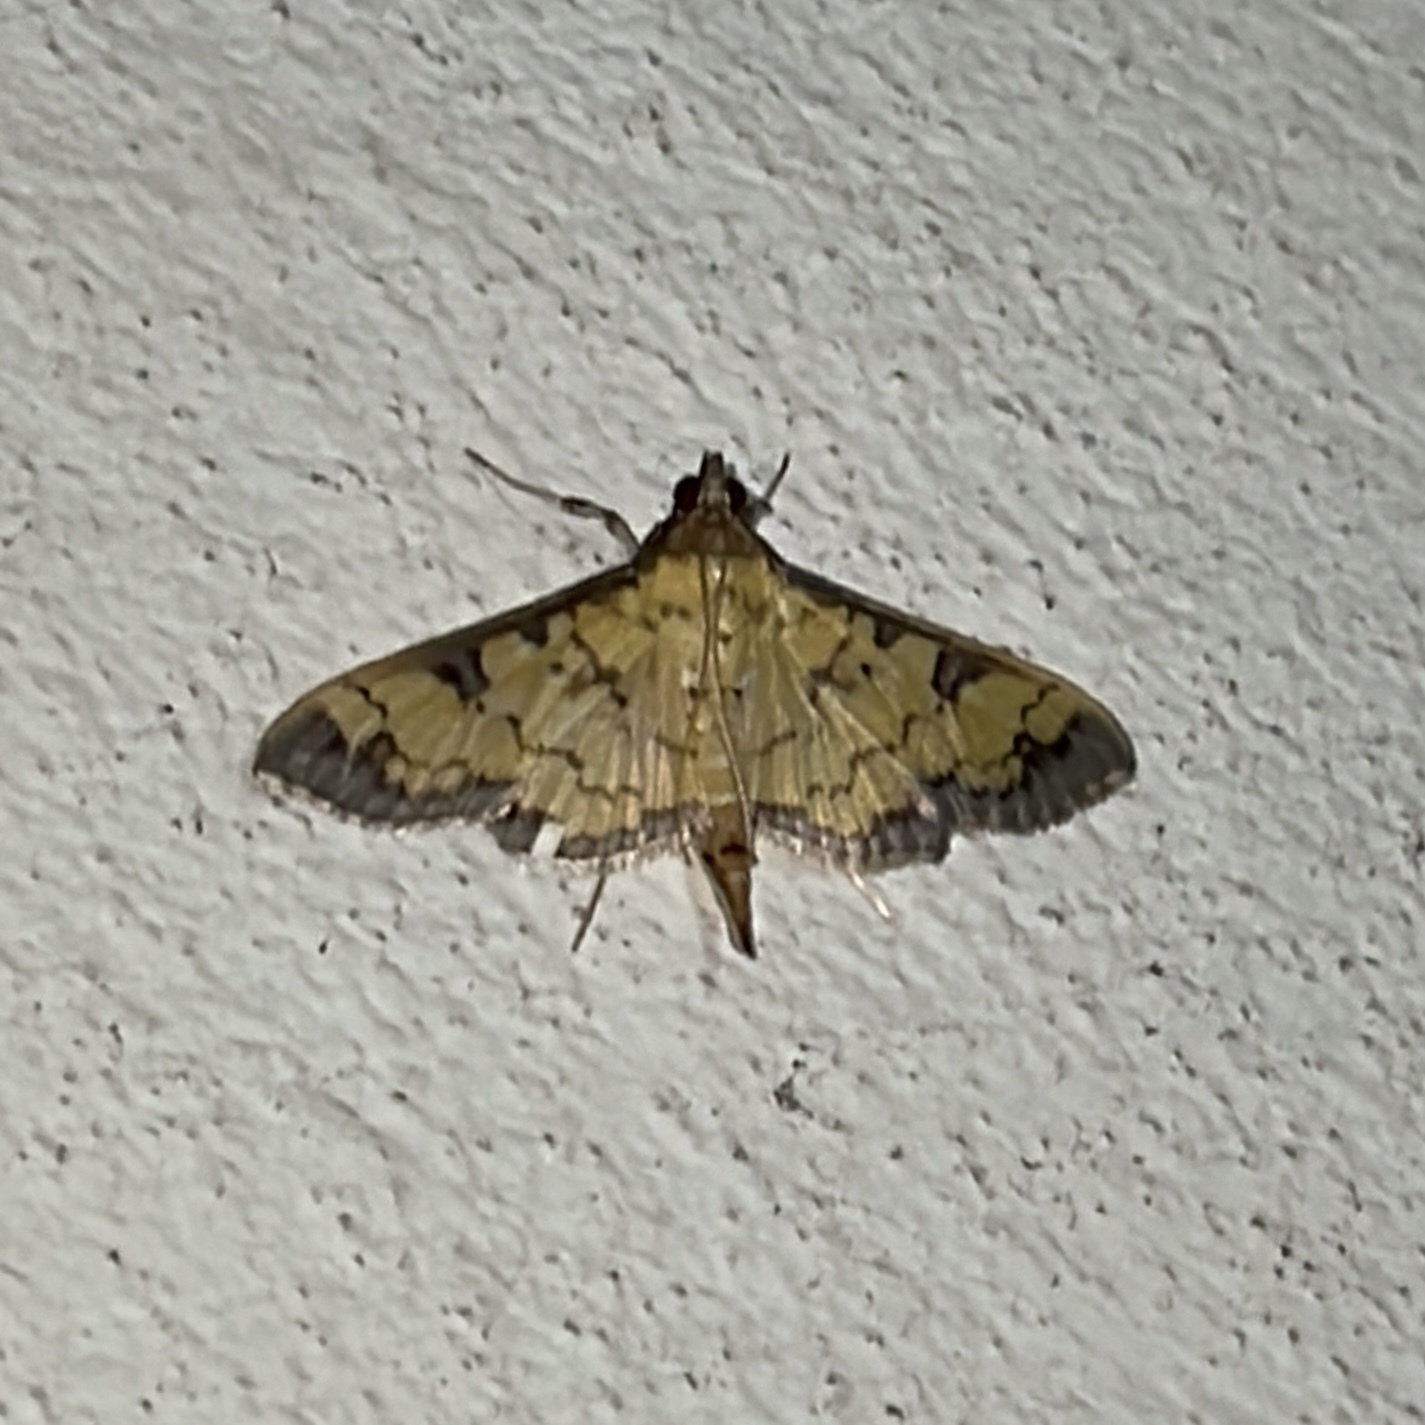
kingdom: Animalia
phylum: Arthropoda
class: Insecta
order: Lepidoptera
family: Crambidae
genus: Diacme
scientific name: Diacme mopsalis
